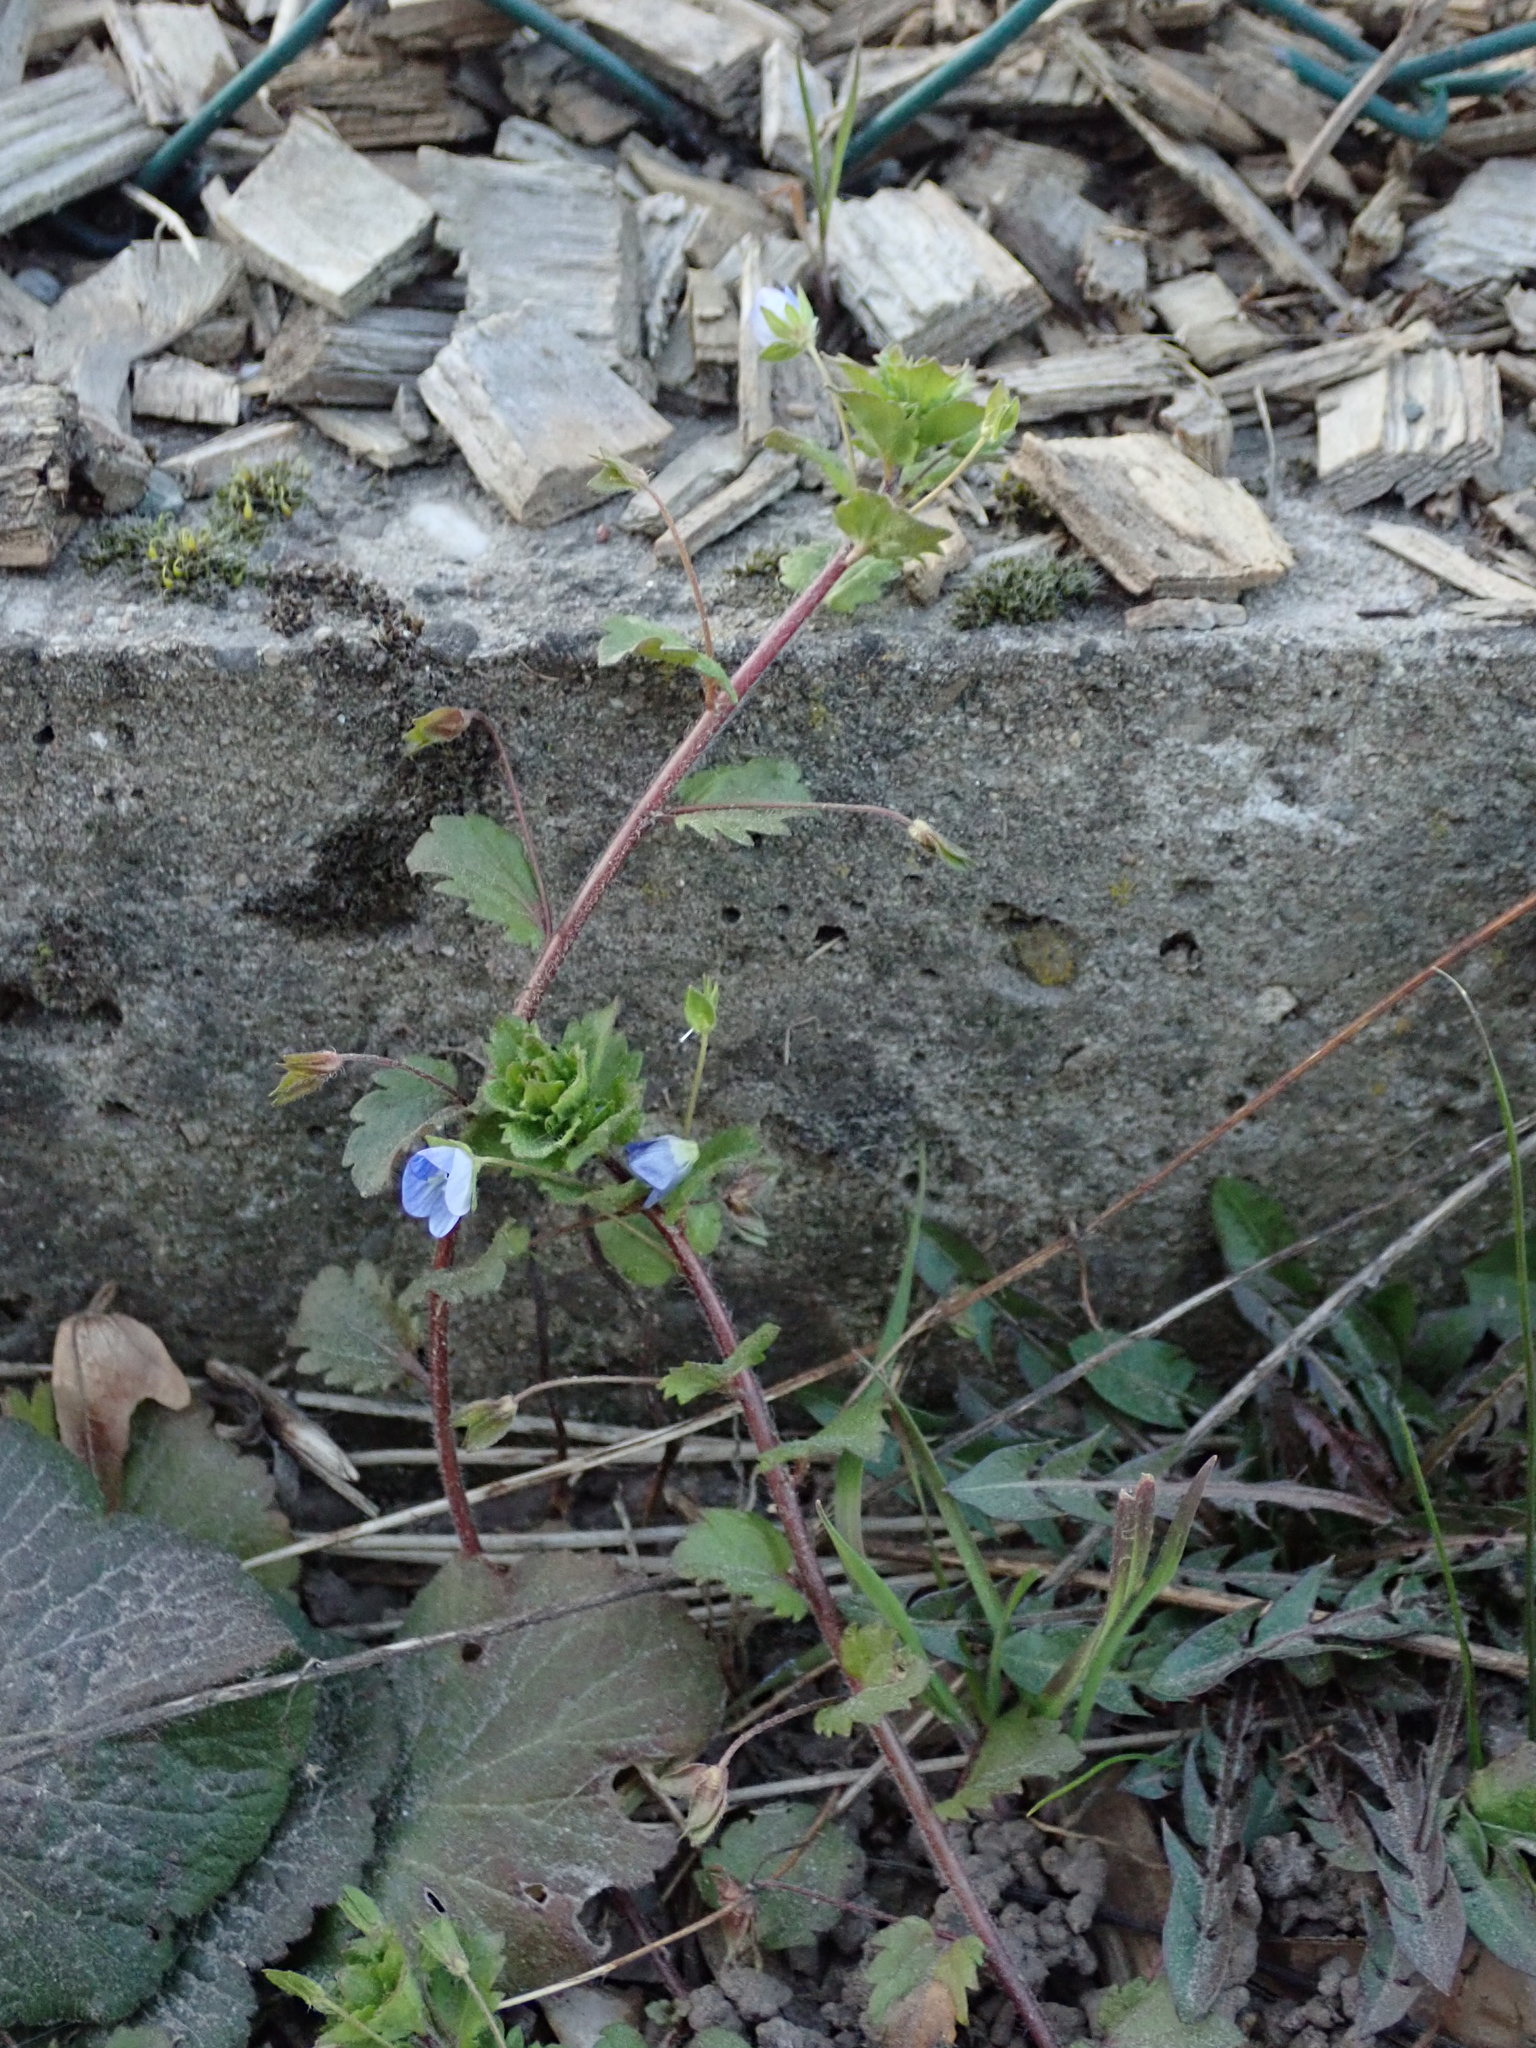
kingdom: Plantae
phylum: Tracheophyta
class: Magnoliopsida
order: Lamiales
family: Plantaginaceae
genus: Veronica
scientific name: Veronica persica
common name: Common field-speedwell
